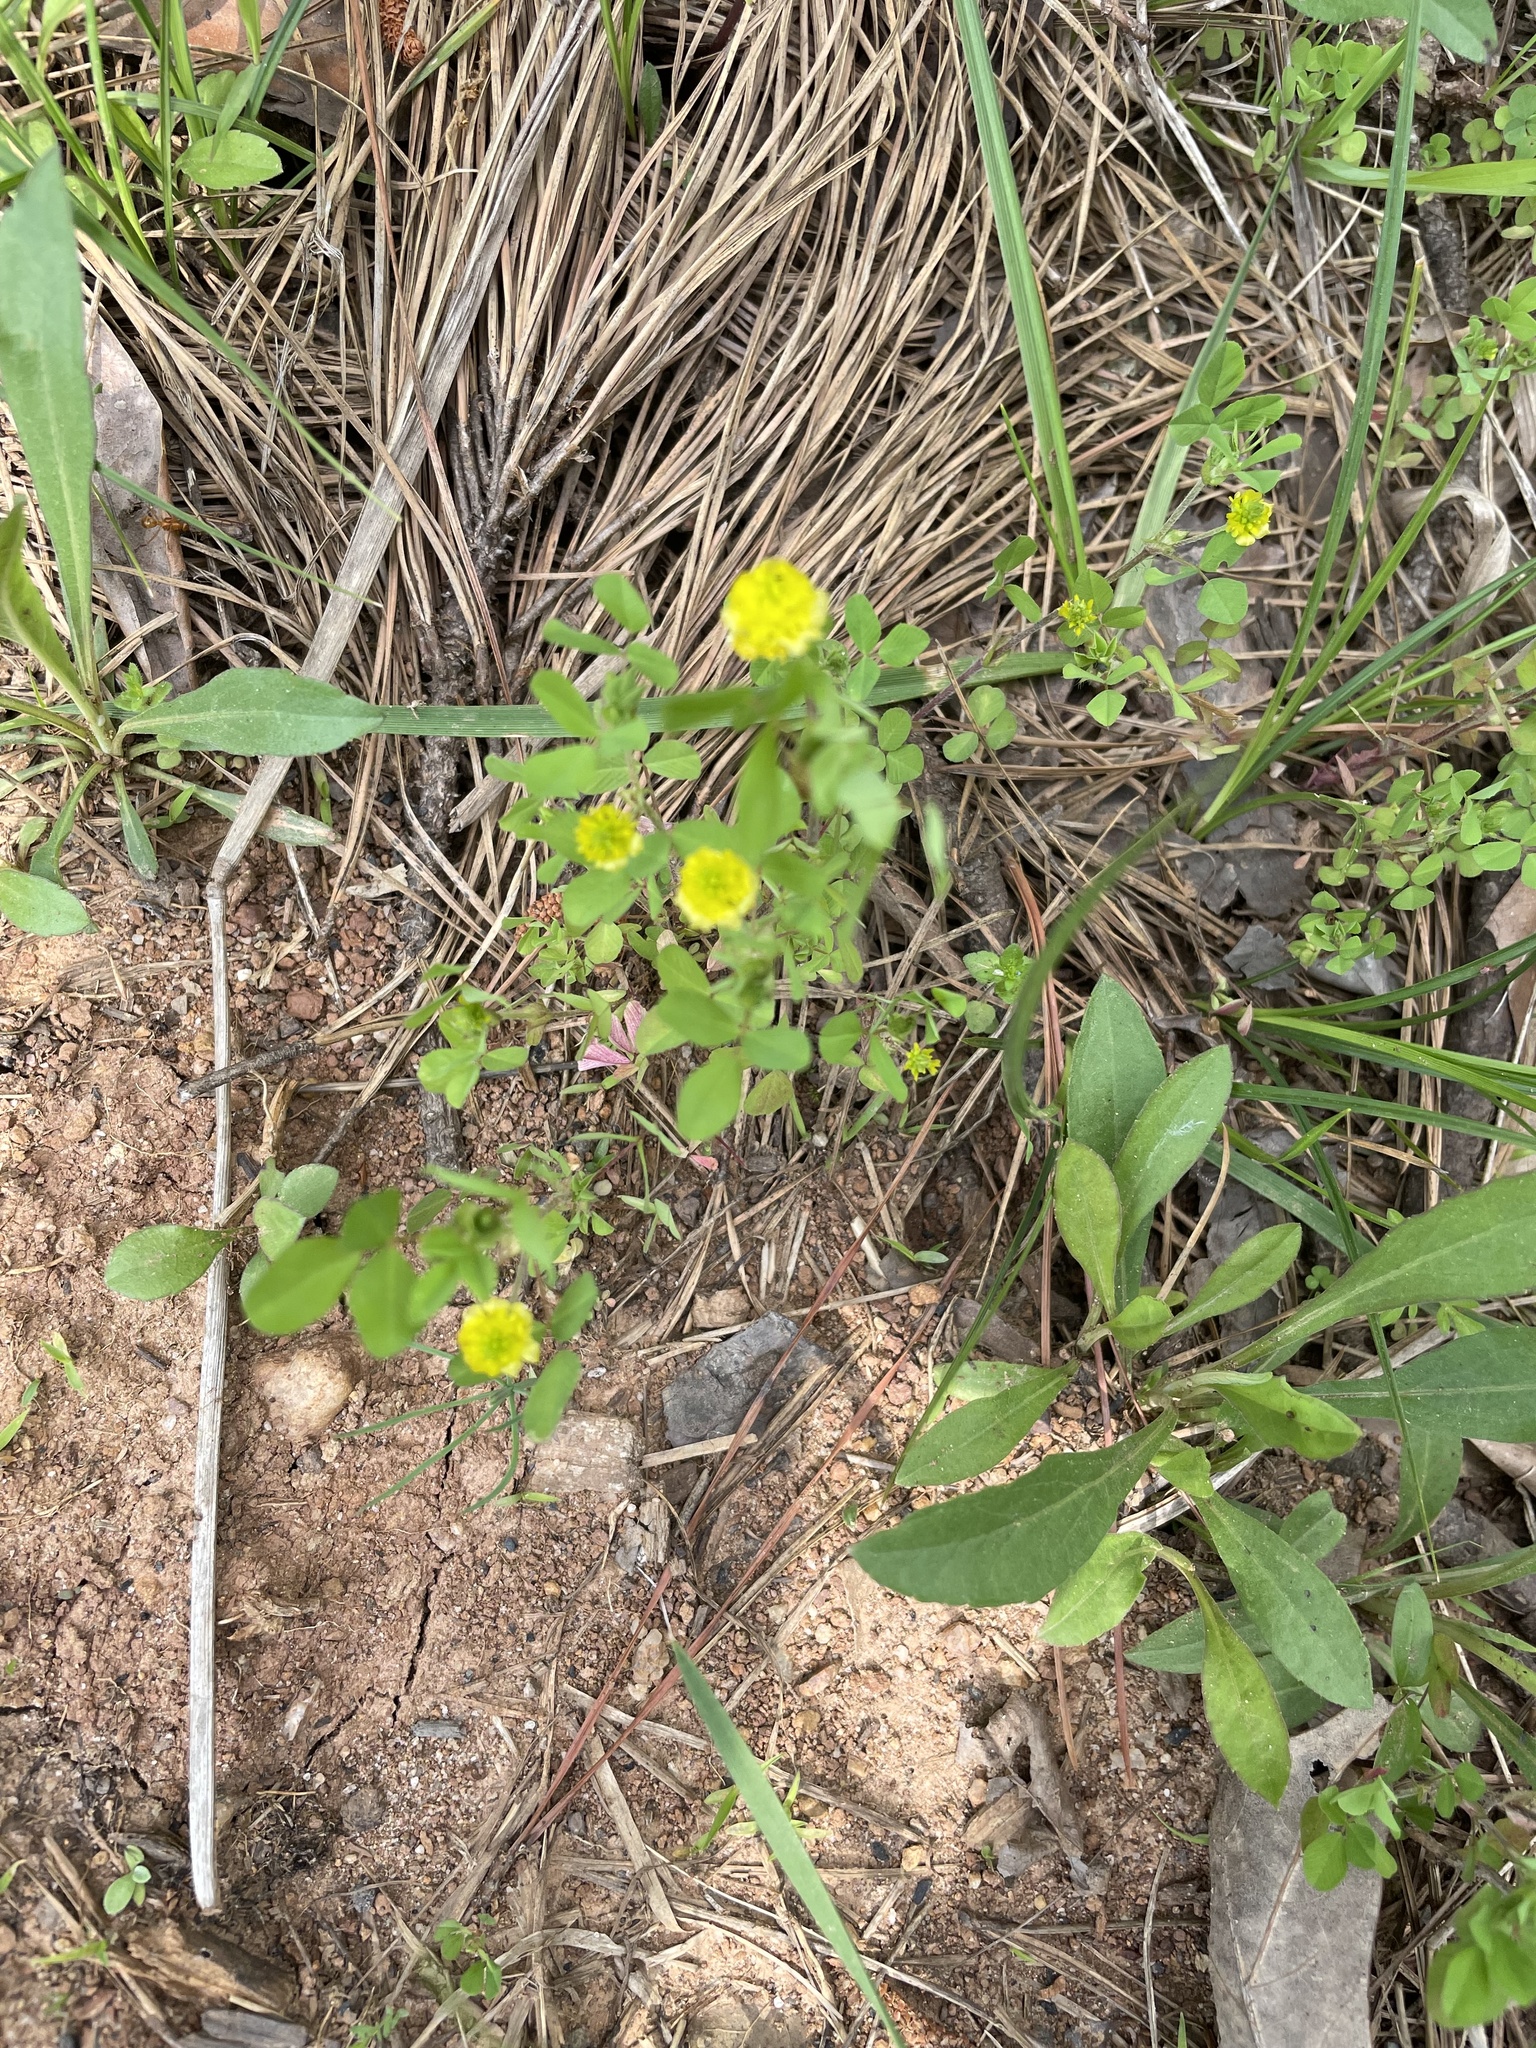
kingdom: Plantae
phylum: Tracheophyta
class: Magnoliopsida
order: Fabales
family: Fabaceae
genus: Trifolium
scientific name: Trifolium campestre
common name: Field clover
